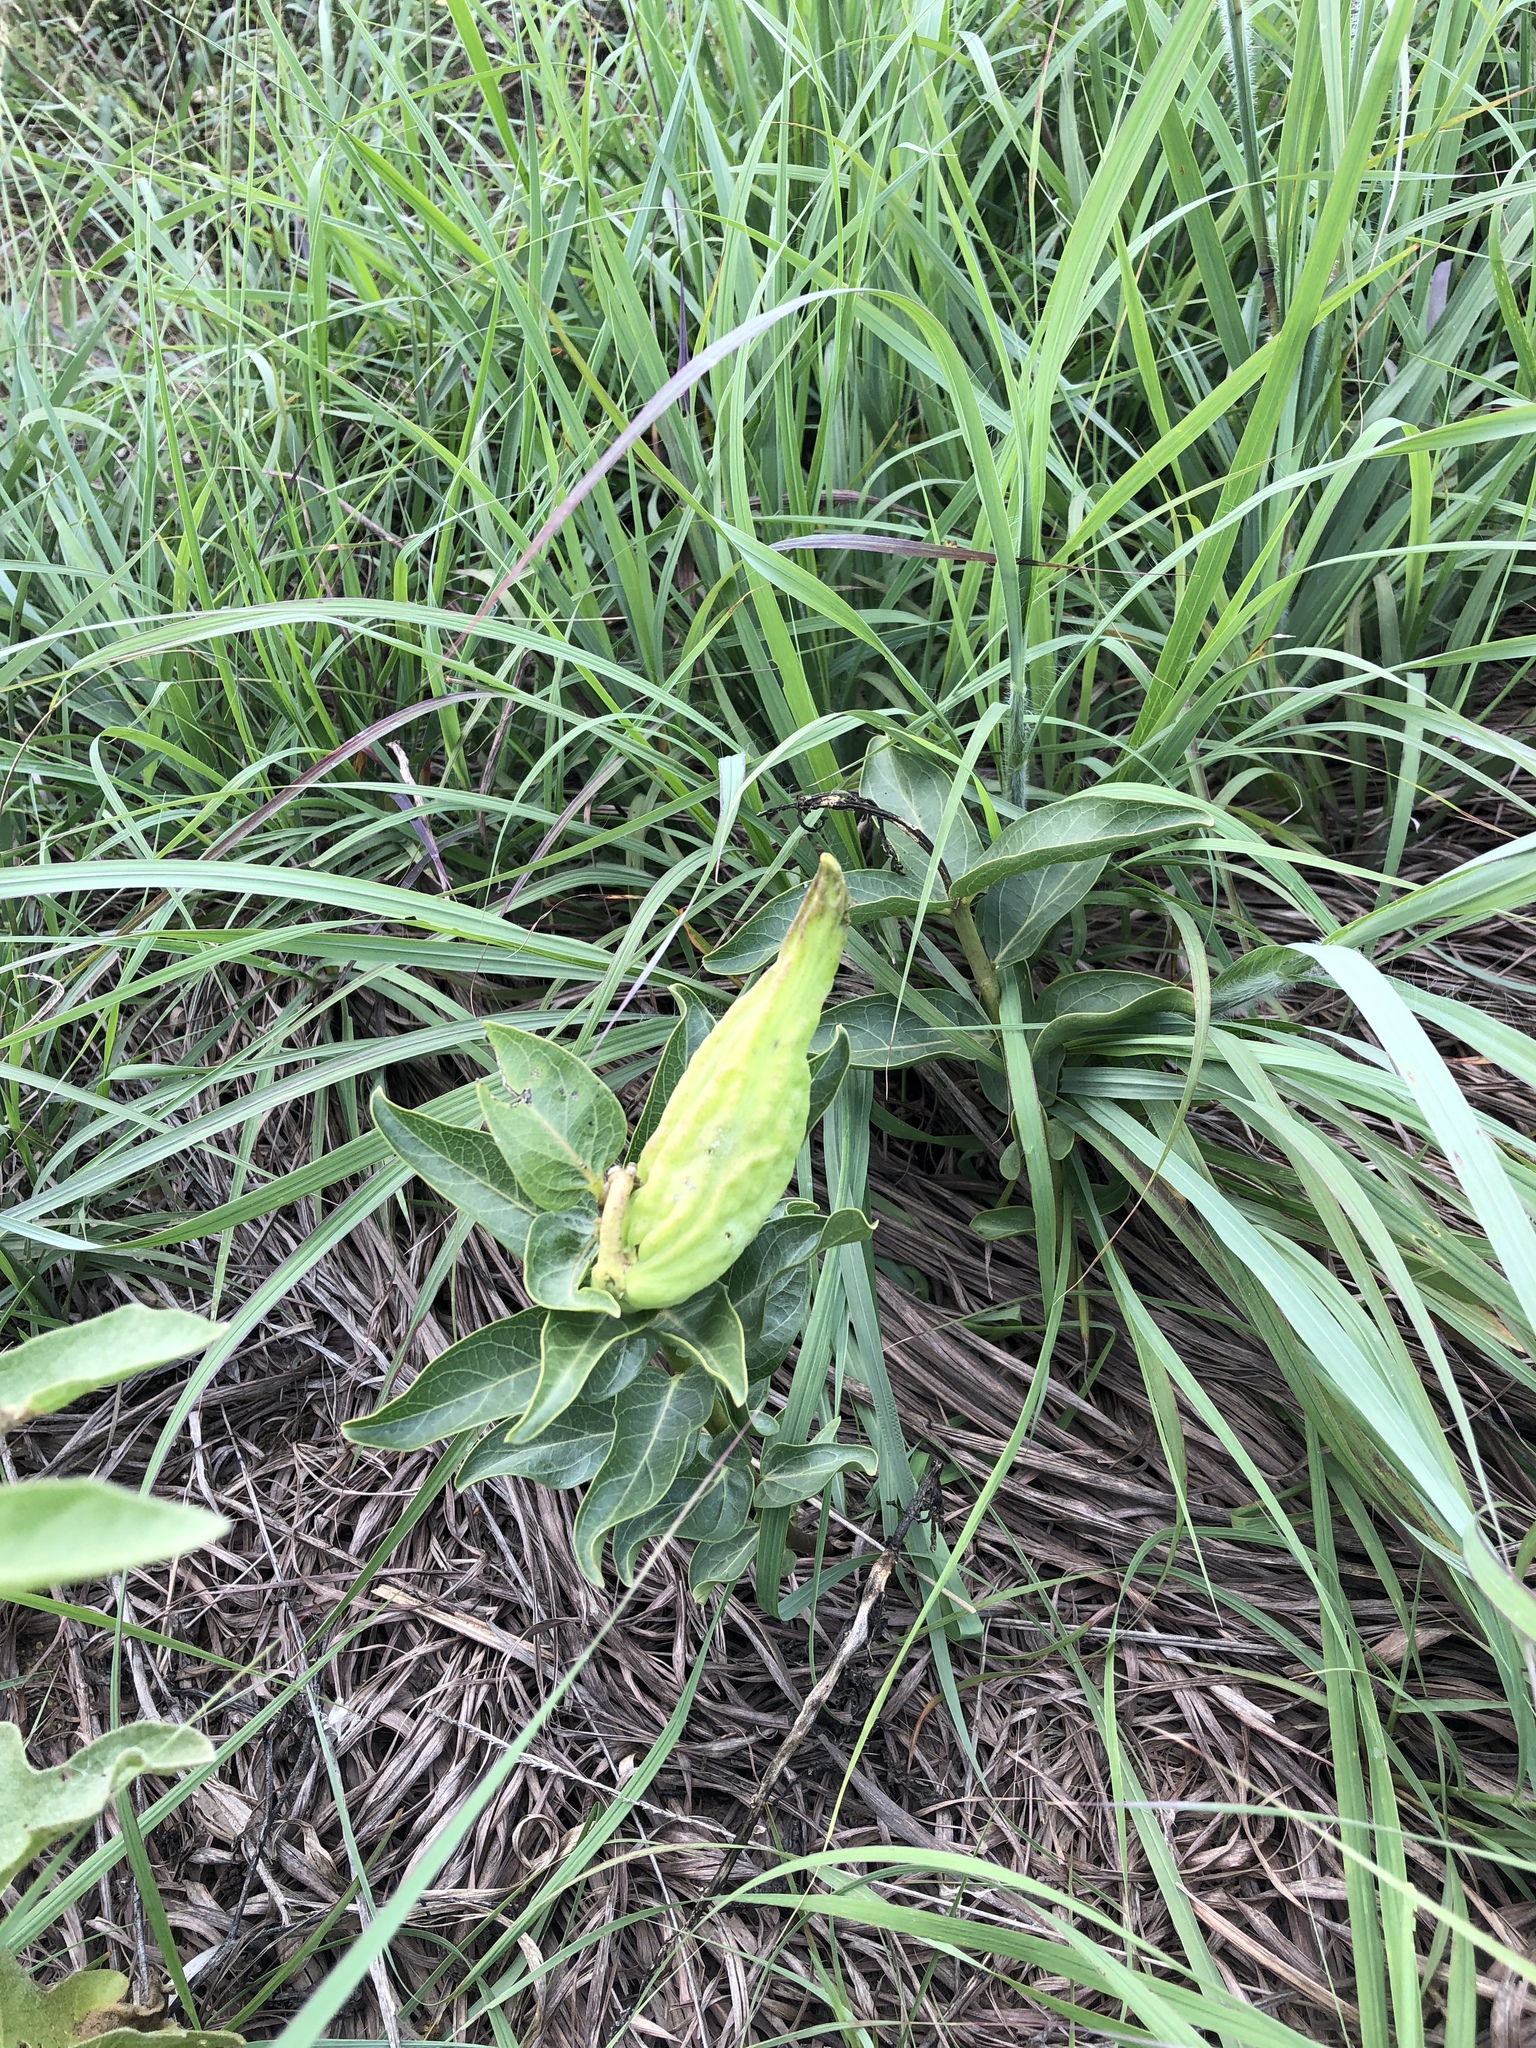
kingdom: Plantae
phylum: Tracheophyta
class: Magnoliopsida
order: Gentianales
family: Apocynaceae
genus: Asclepias
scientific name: Asclepias viridis
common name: Antelope-horns
